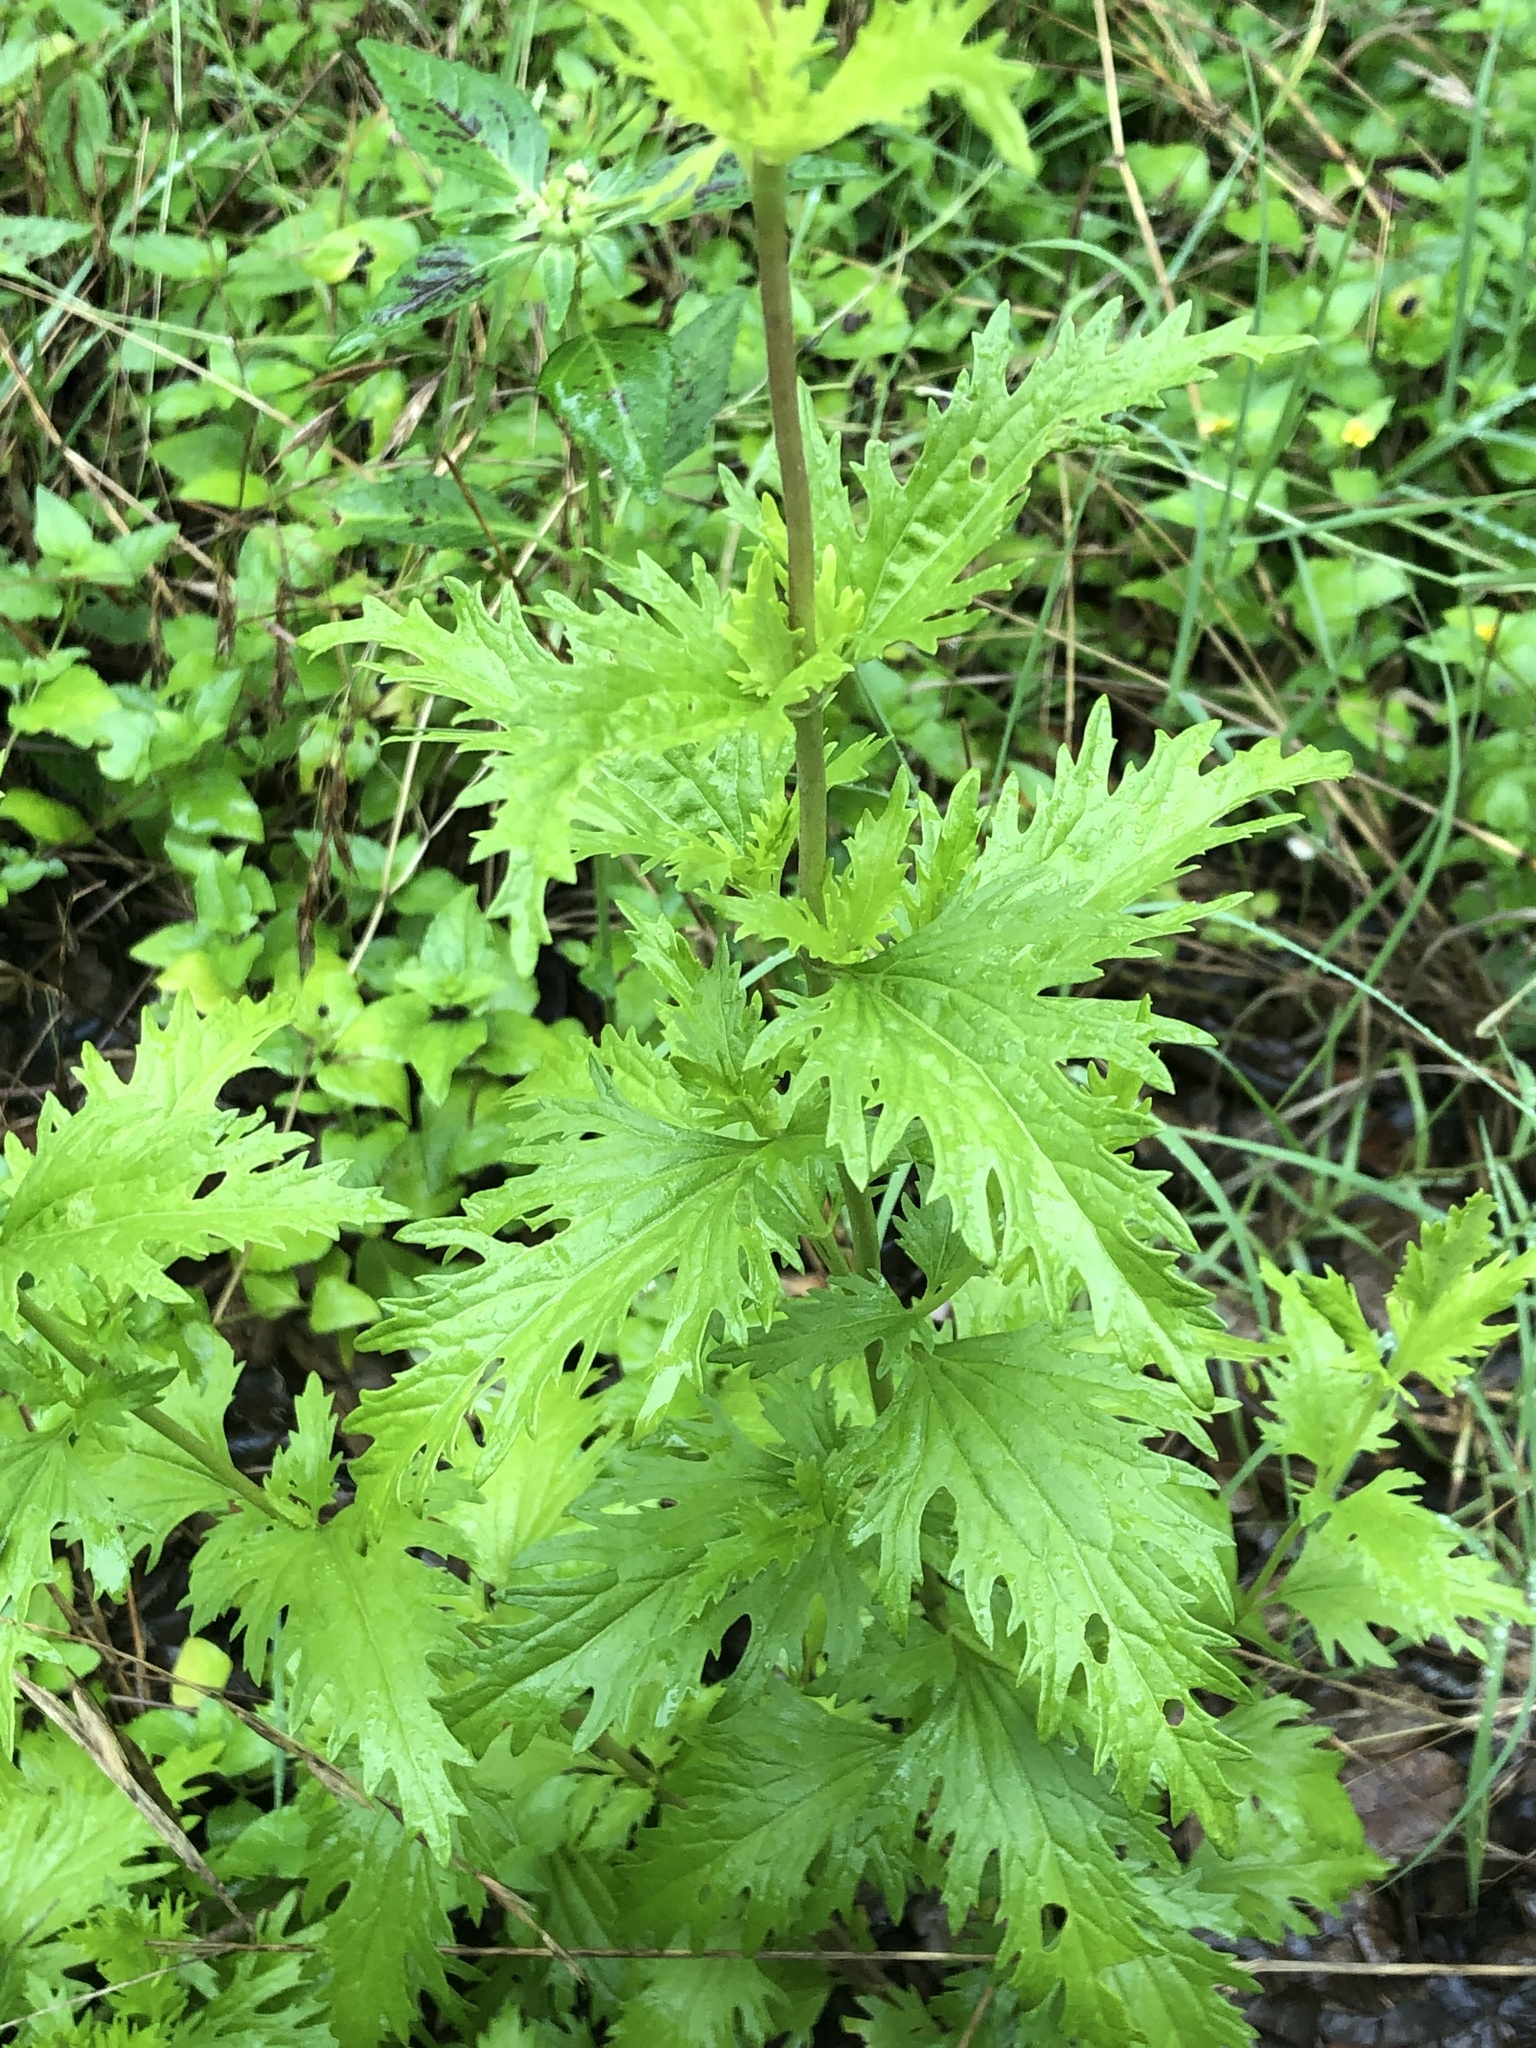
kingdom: Plantae
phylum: Tracheophyta
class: Magnoliopsida
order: Asterales
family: Asteraceae
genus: Conoclinium
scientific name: Conoclinium dissectum
